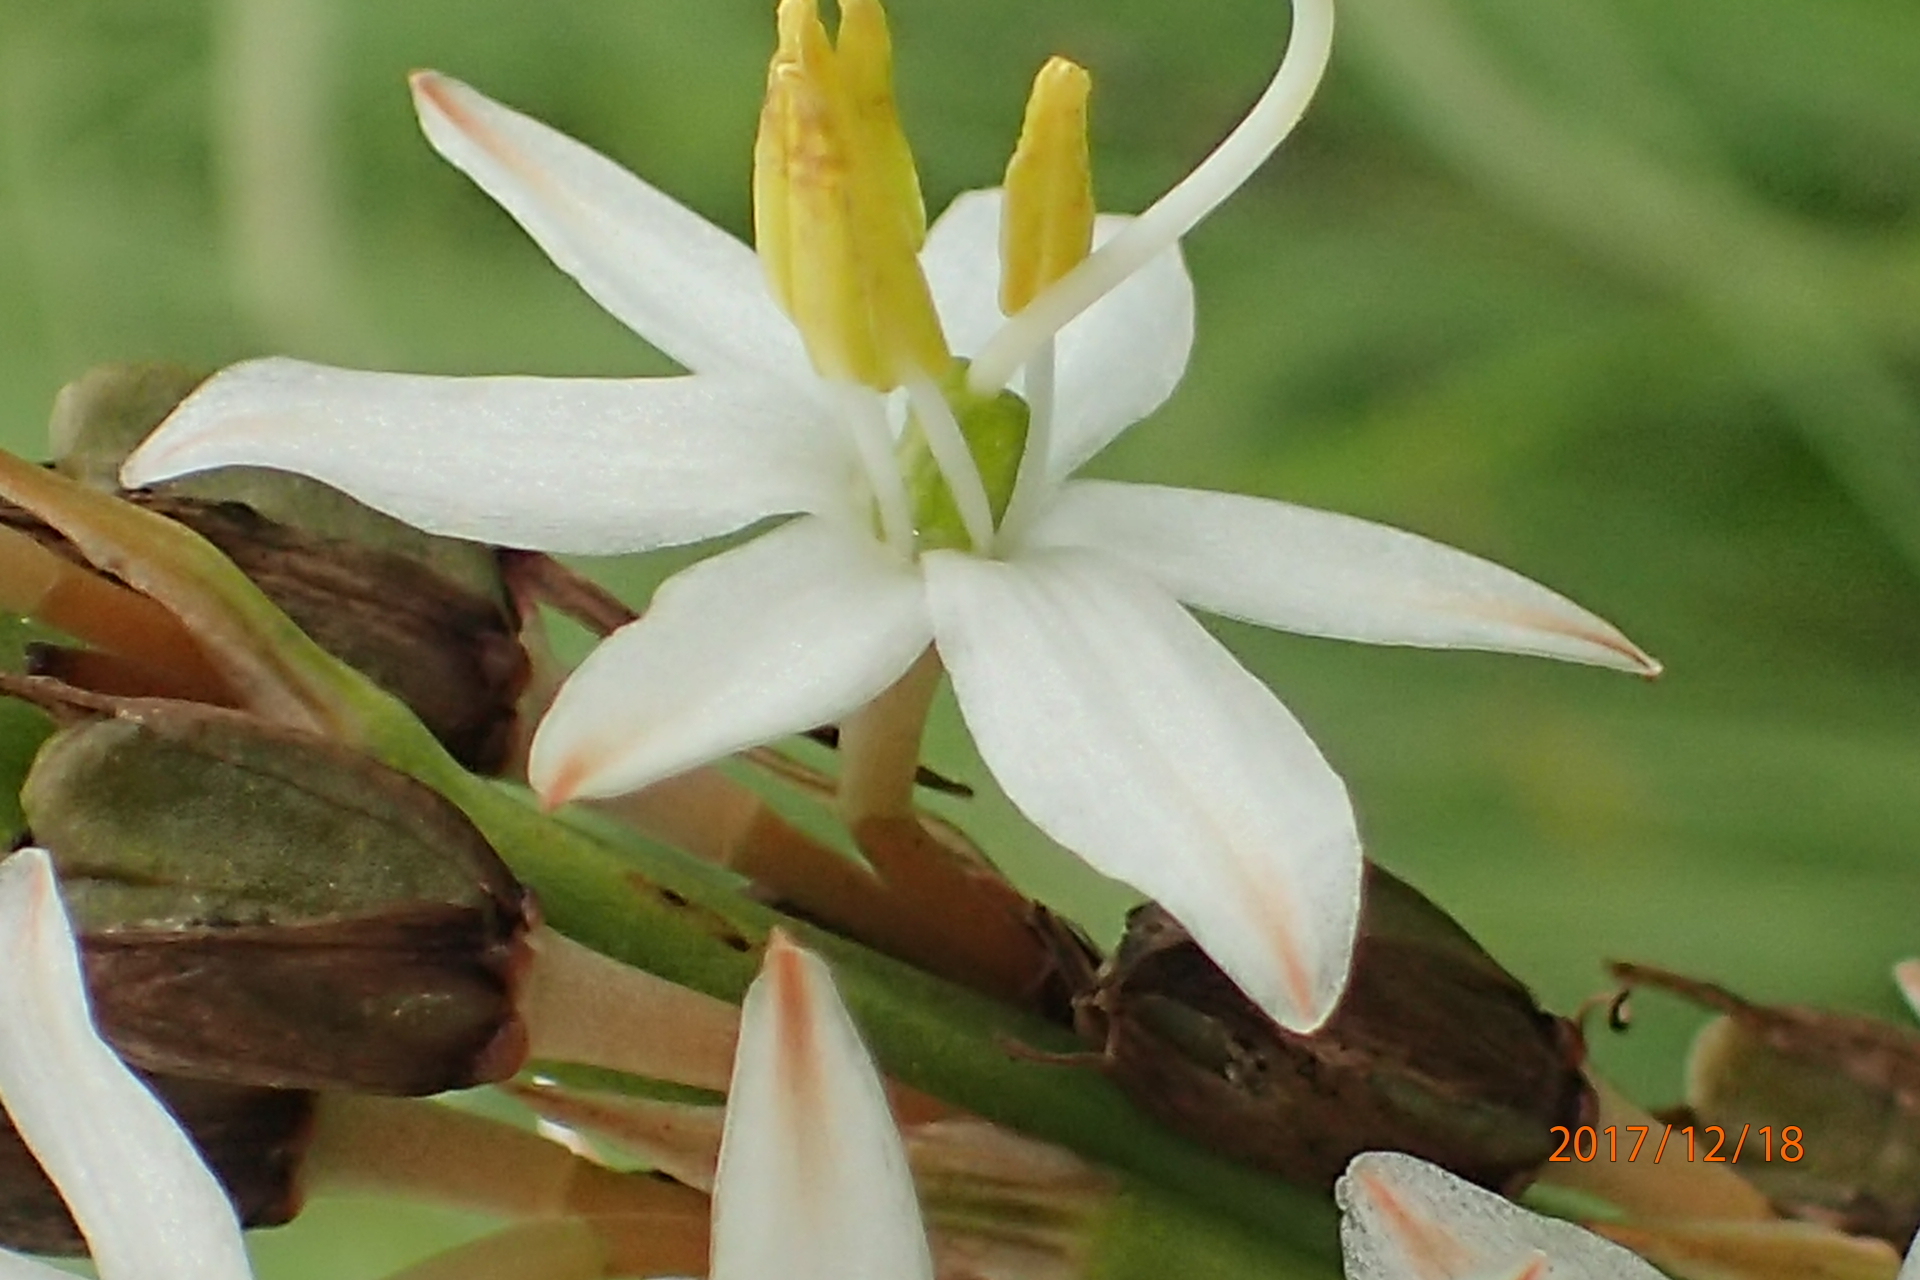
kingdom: Plantae
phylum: Tracheophyta
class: Liliopsida
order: Asparagales
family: Asparagaceae
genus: Chlorophytum
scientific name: Chlorophytum krookianum
